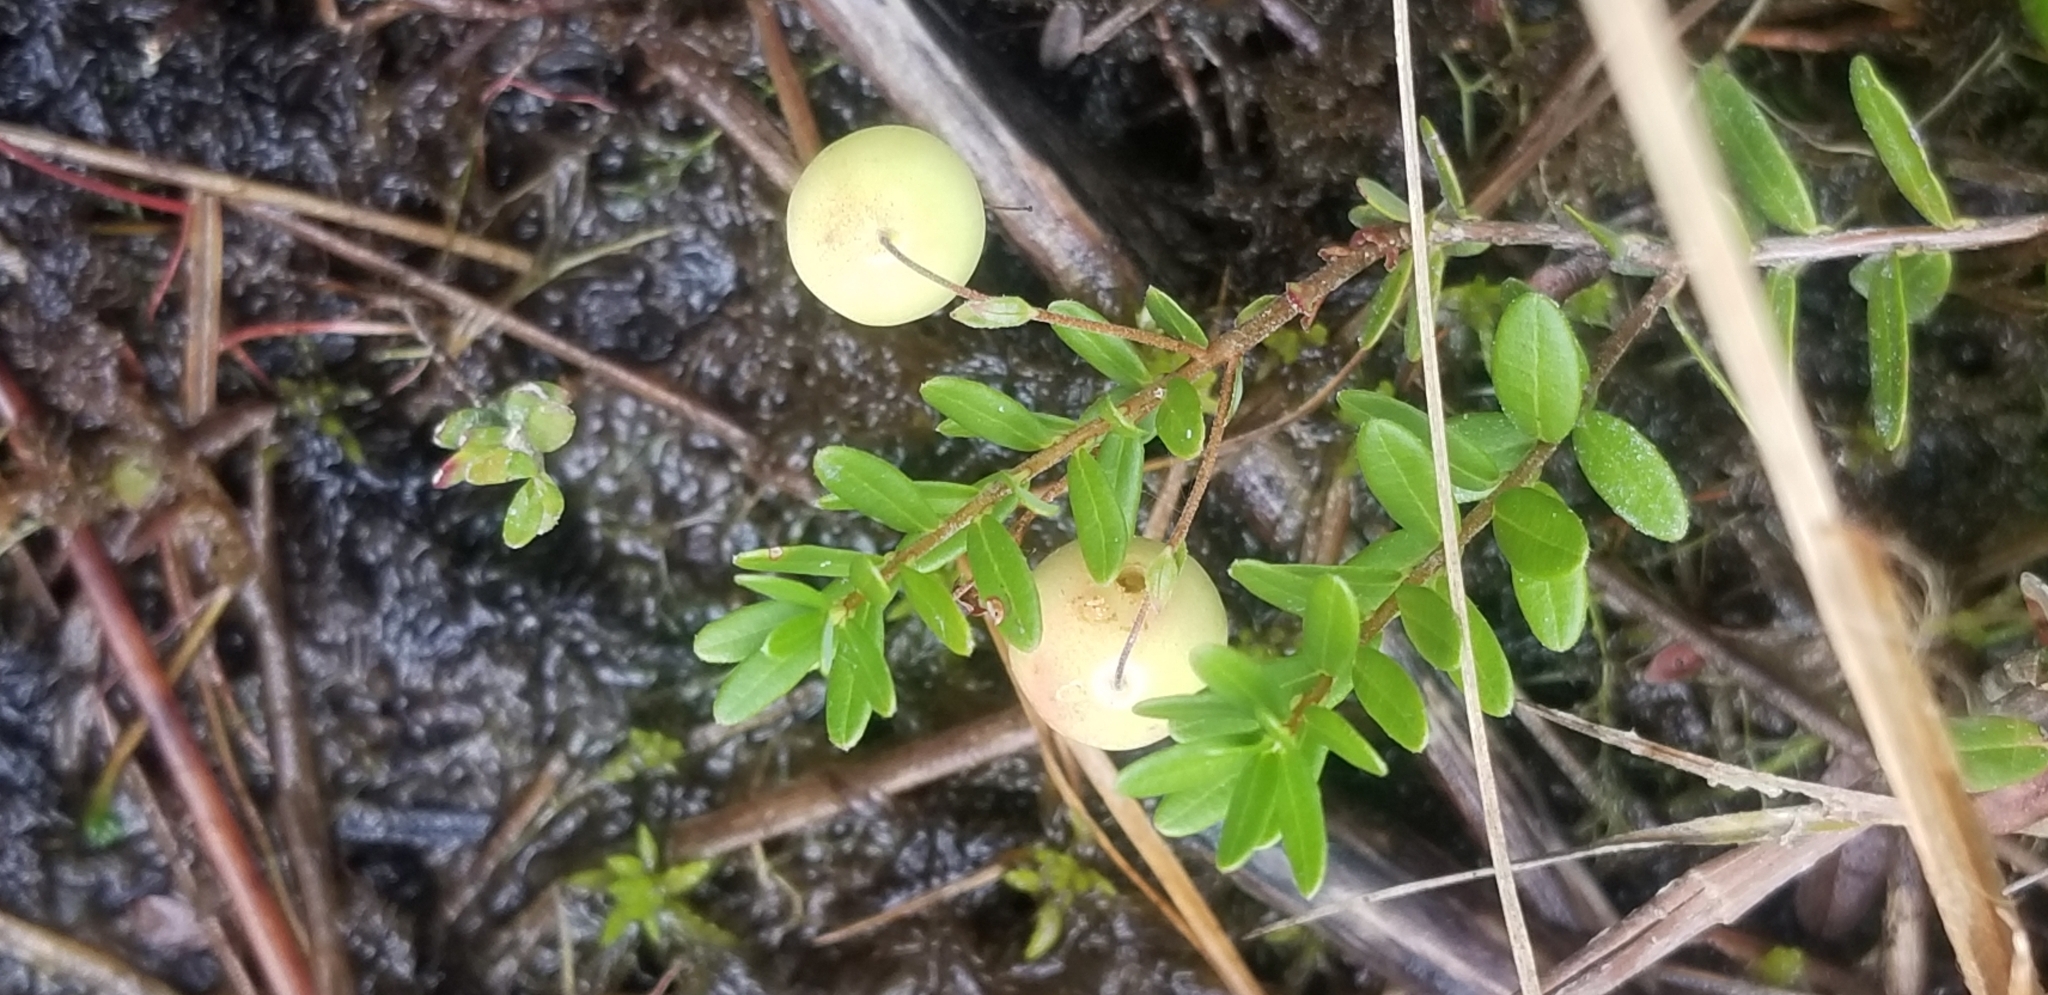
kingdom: Plantae
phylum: Tracheophyta
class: Magnoliopsida
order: Ericales
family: Ericaceae
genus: Vaccinium
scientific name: Vaccinium macrocarpon
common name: American cranberry
